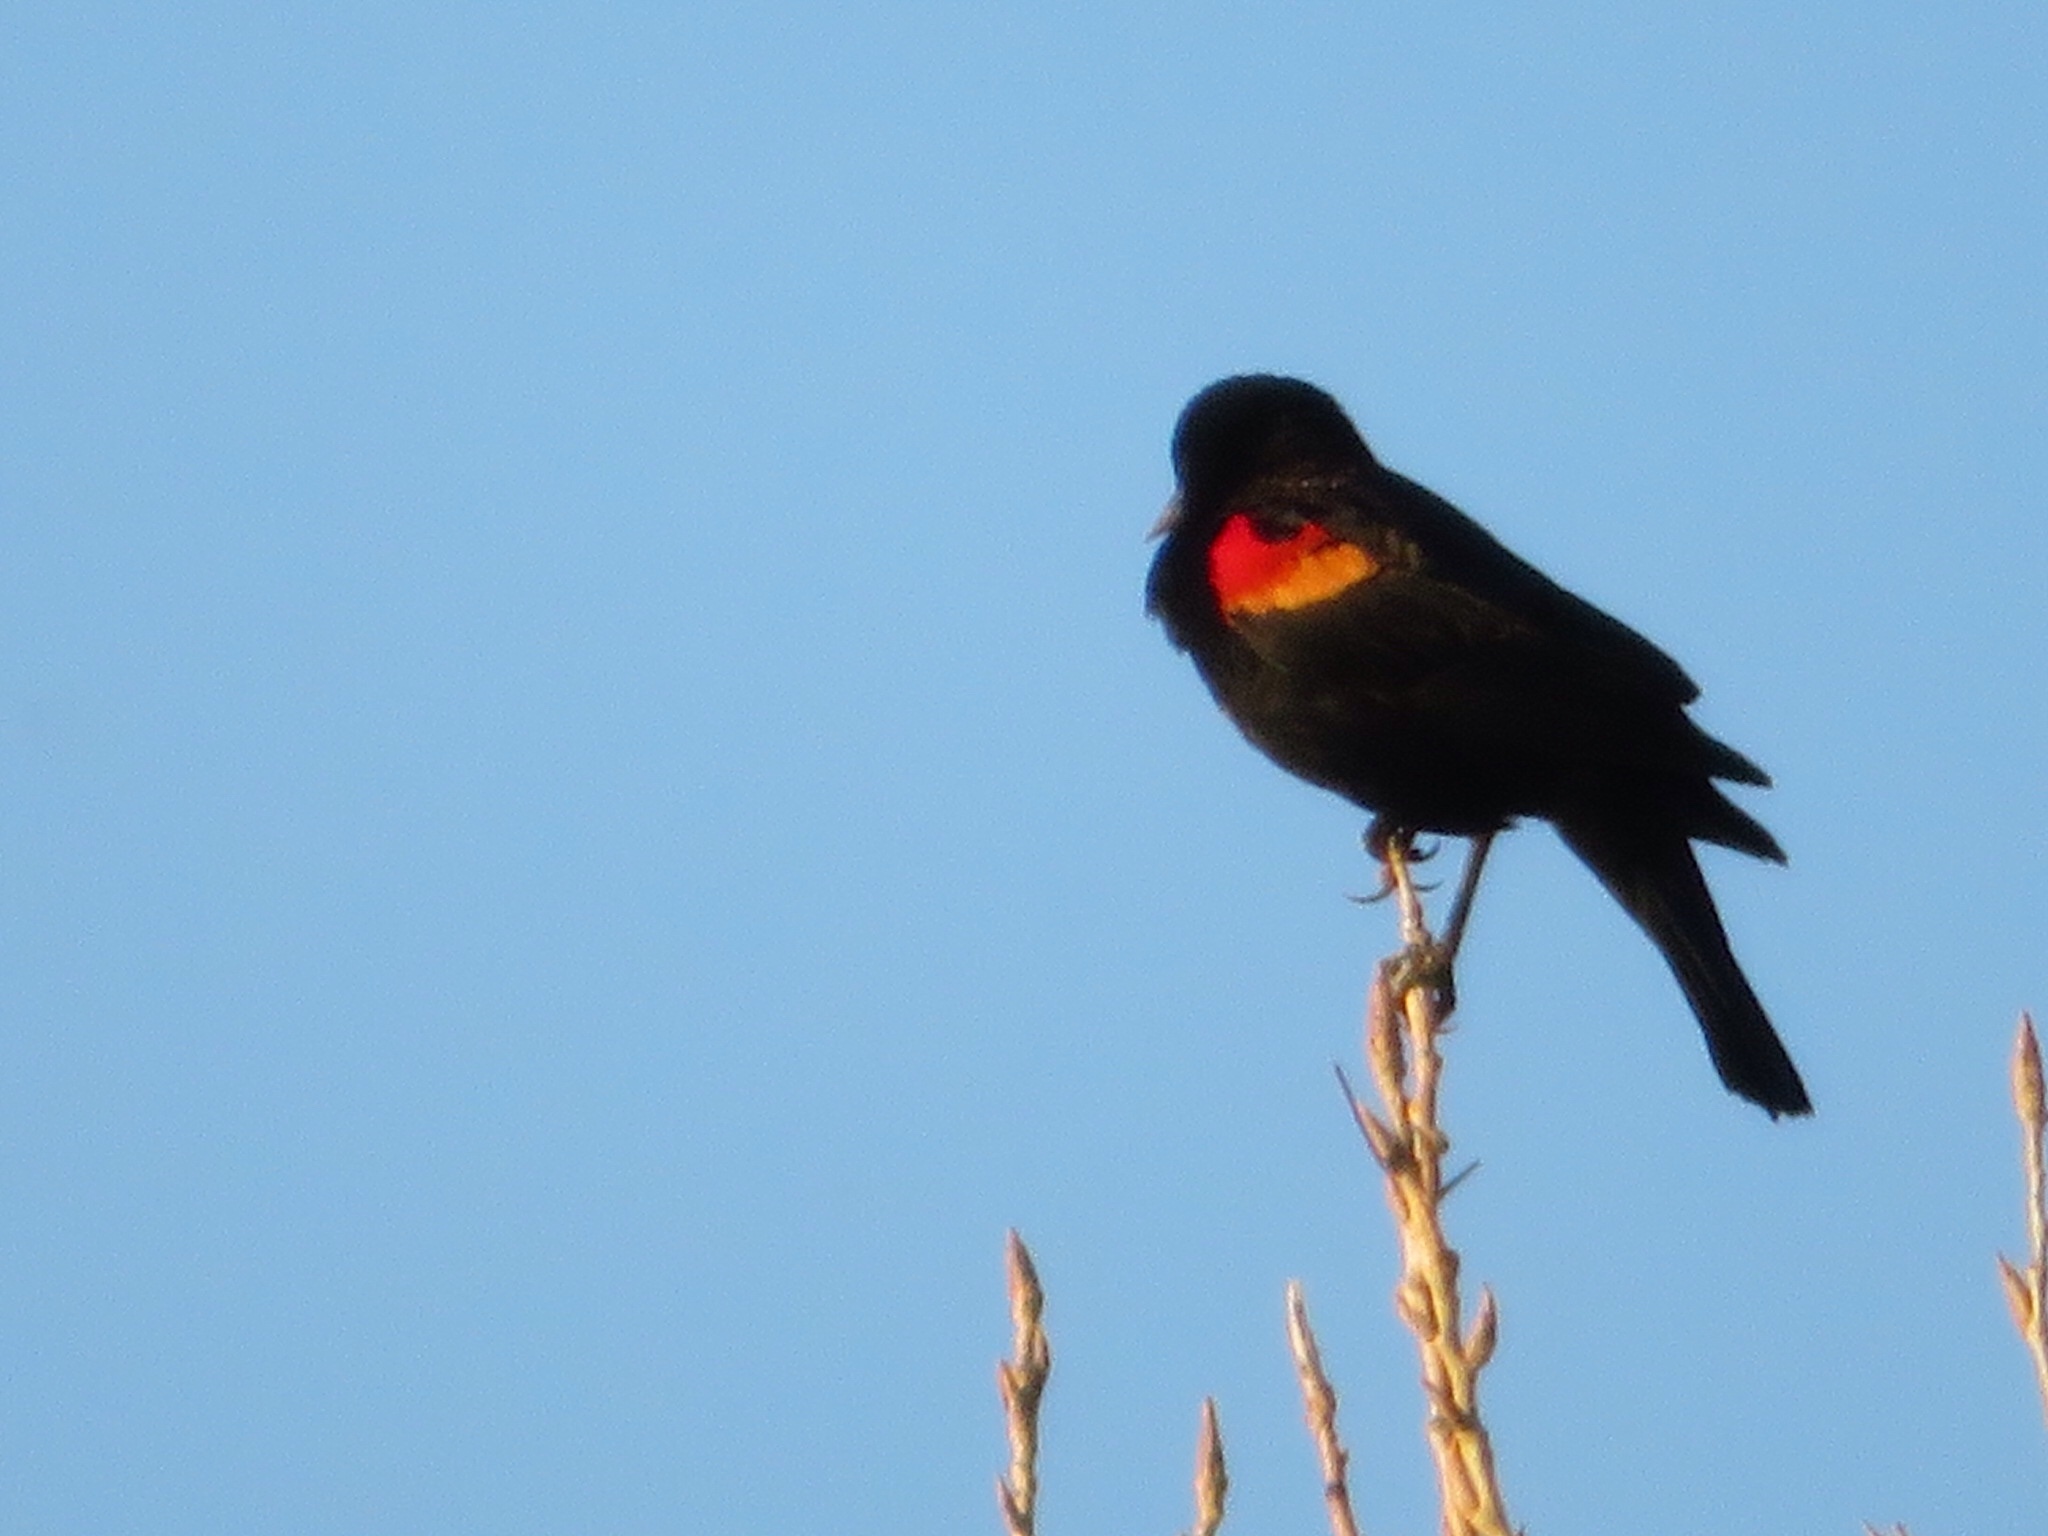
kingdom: Animalia
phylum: Chordata
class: Aves
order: Passeriformes
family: Icteridae
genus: Agelaius
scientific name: Agelaius phoeniceus
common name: Red-winged blackbird
